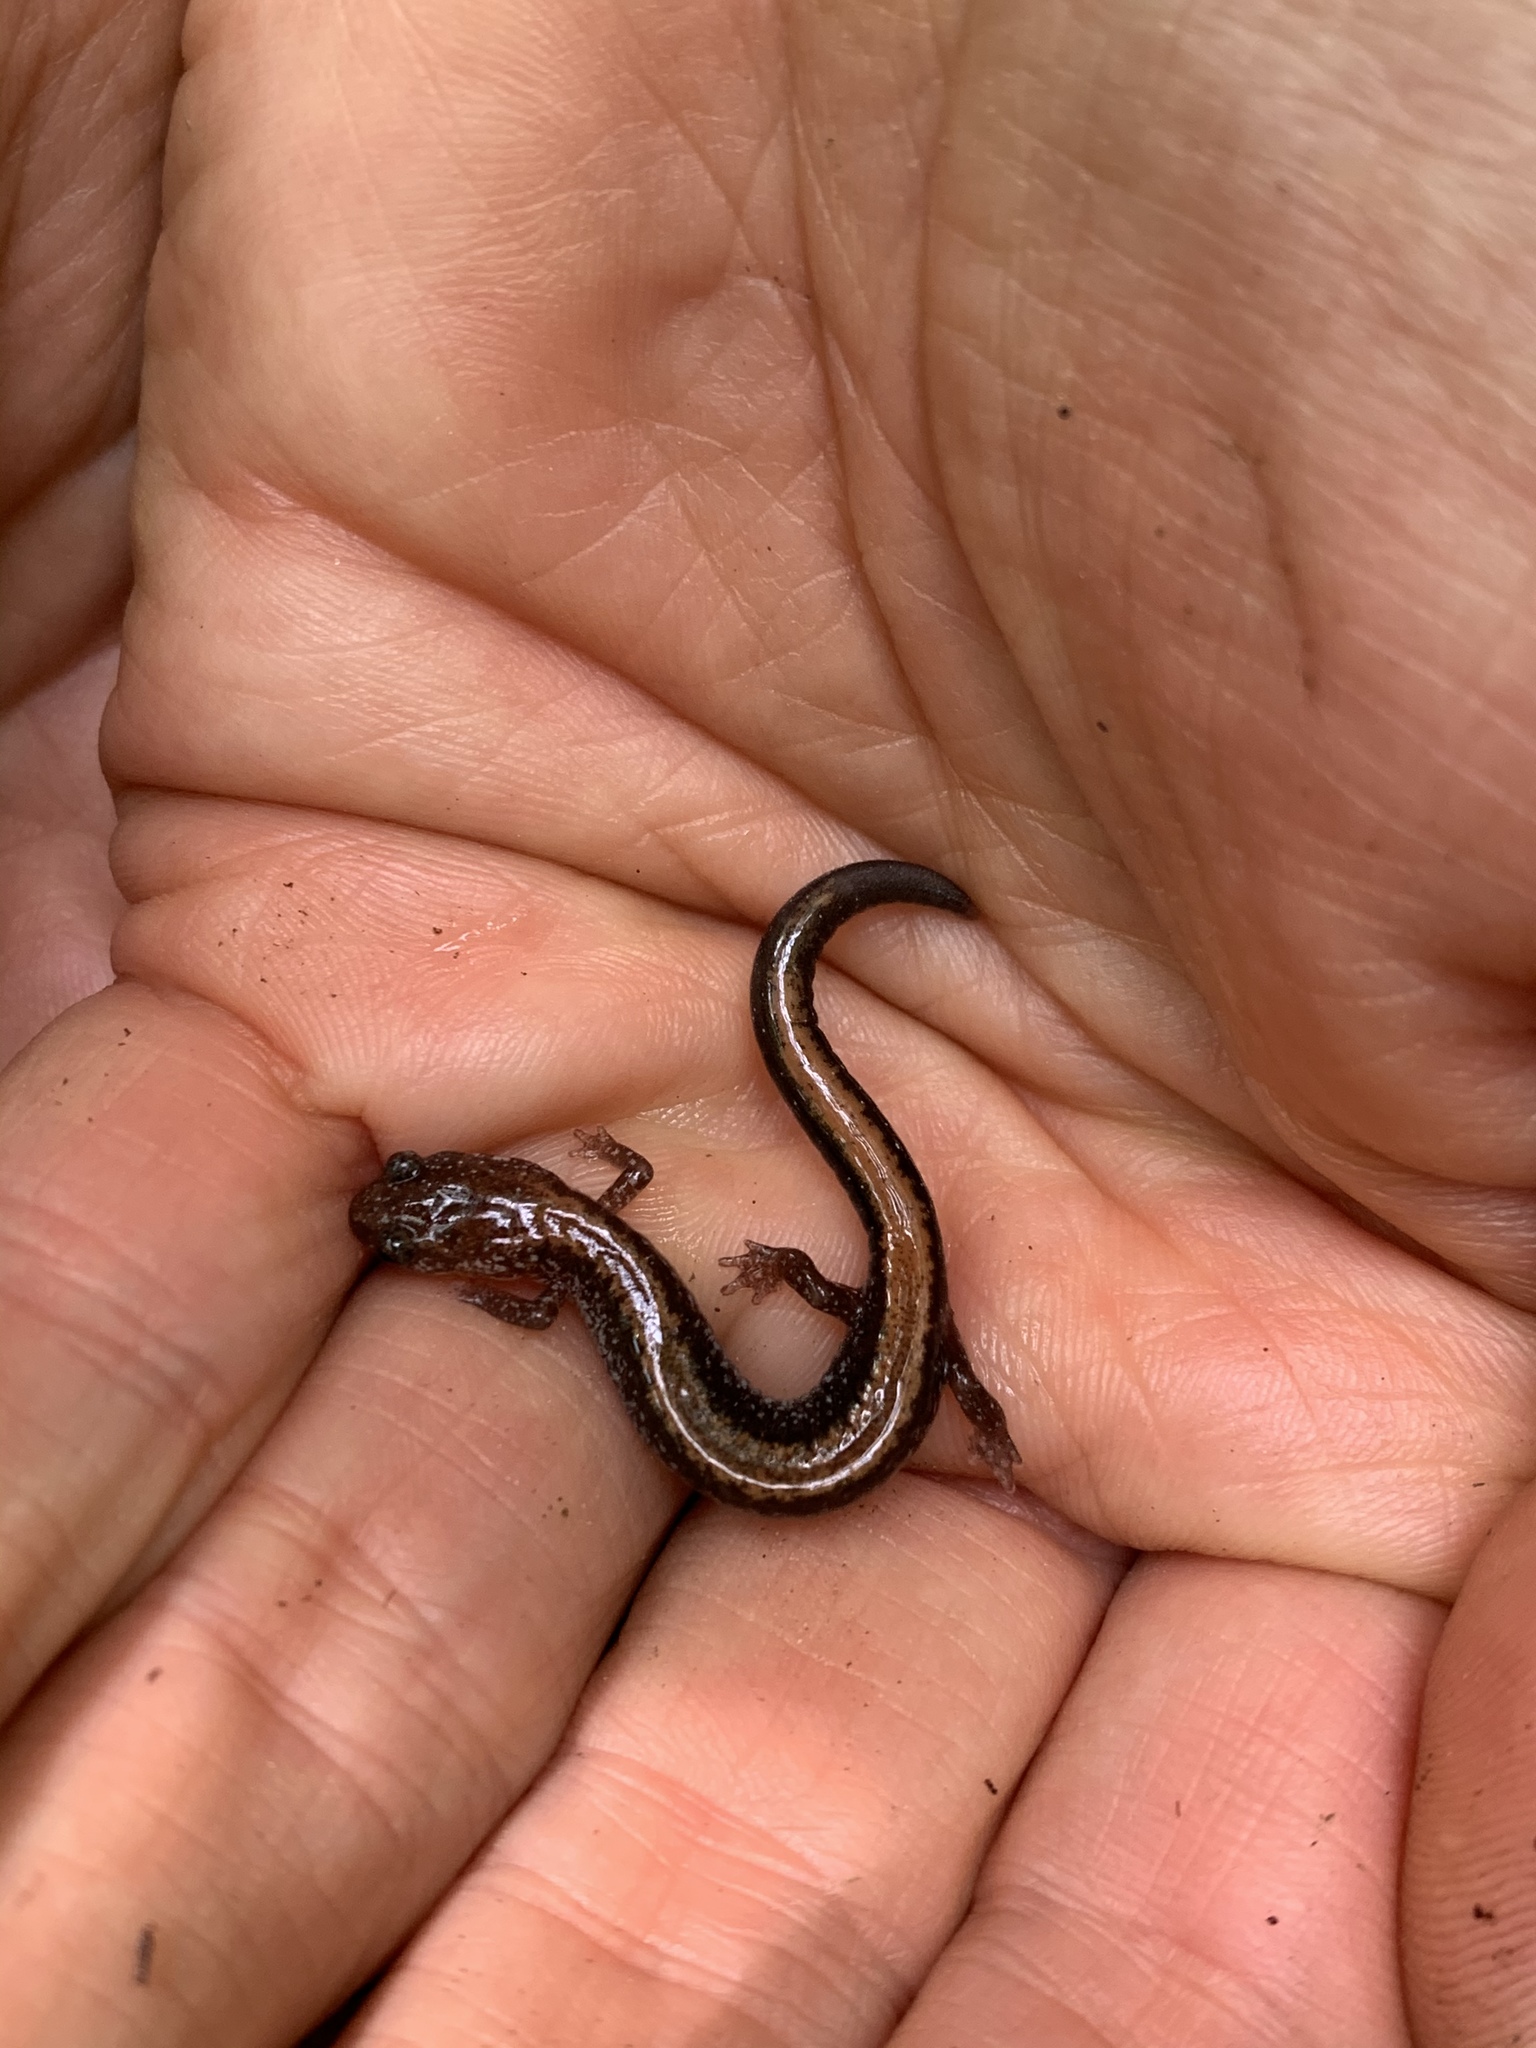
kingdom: Animalia
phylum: Chordata
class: Amphibia
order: Caudata
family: Plethodontidae
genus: Plethodon
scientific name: Plethodon cinereus
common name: Redback salamander
